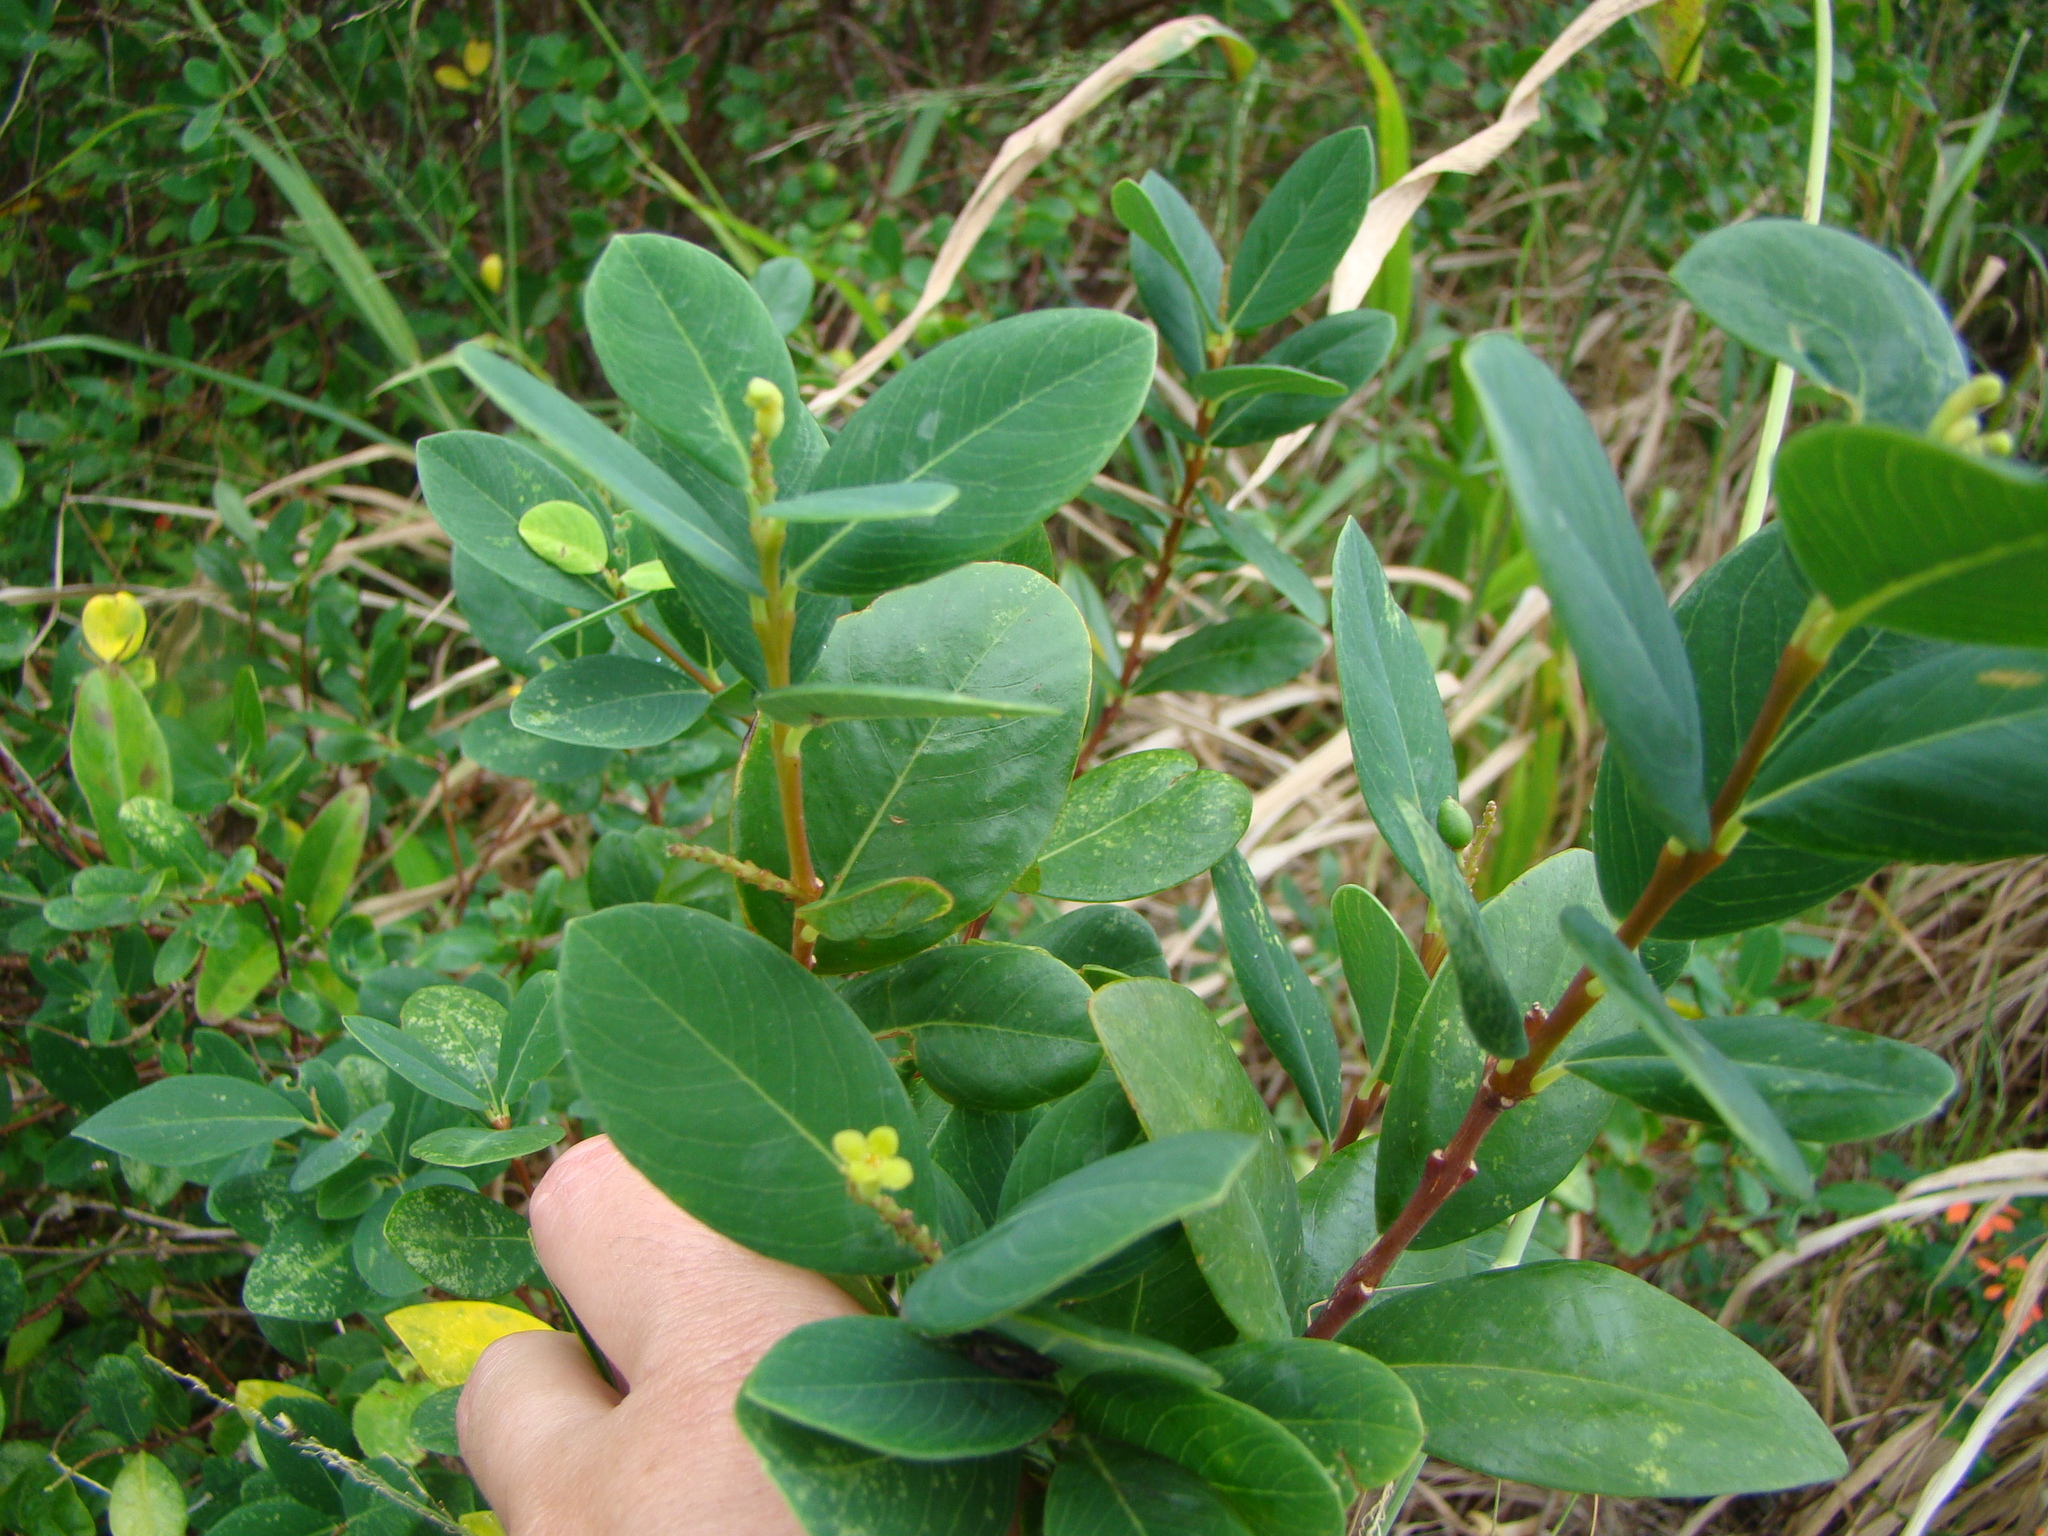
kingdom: Plantae
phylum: Tracheophyta
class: Magnoliopsida
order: Malvales
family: Thymelaeaceae
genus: Wikstroemia
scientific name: Wikstroemia indica
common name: Tiebush
